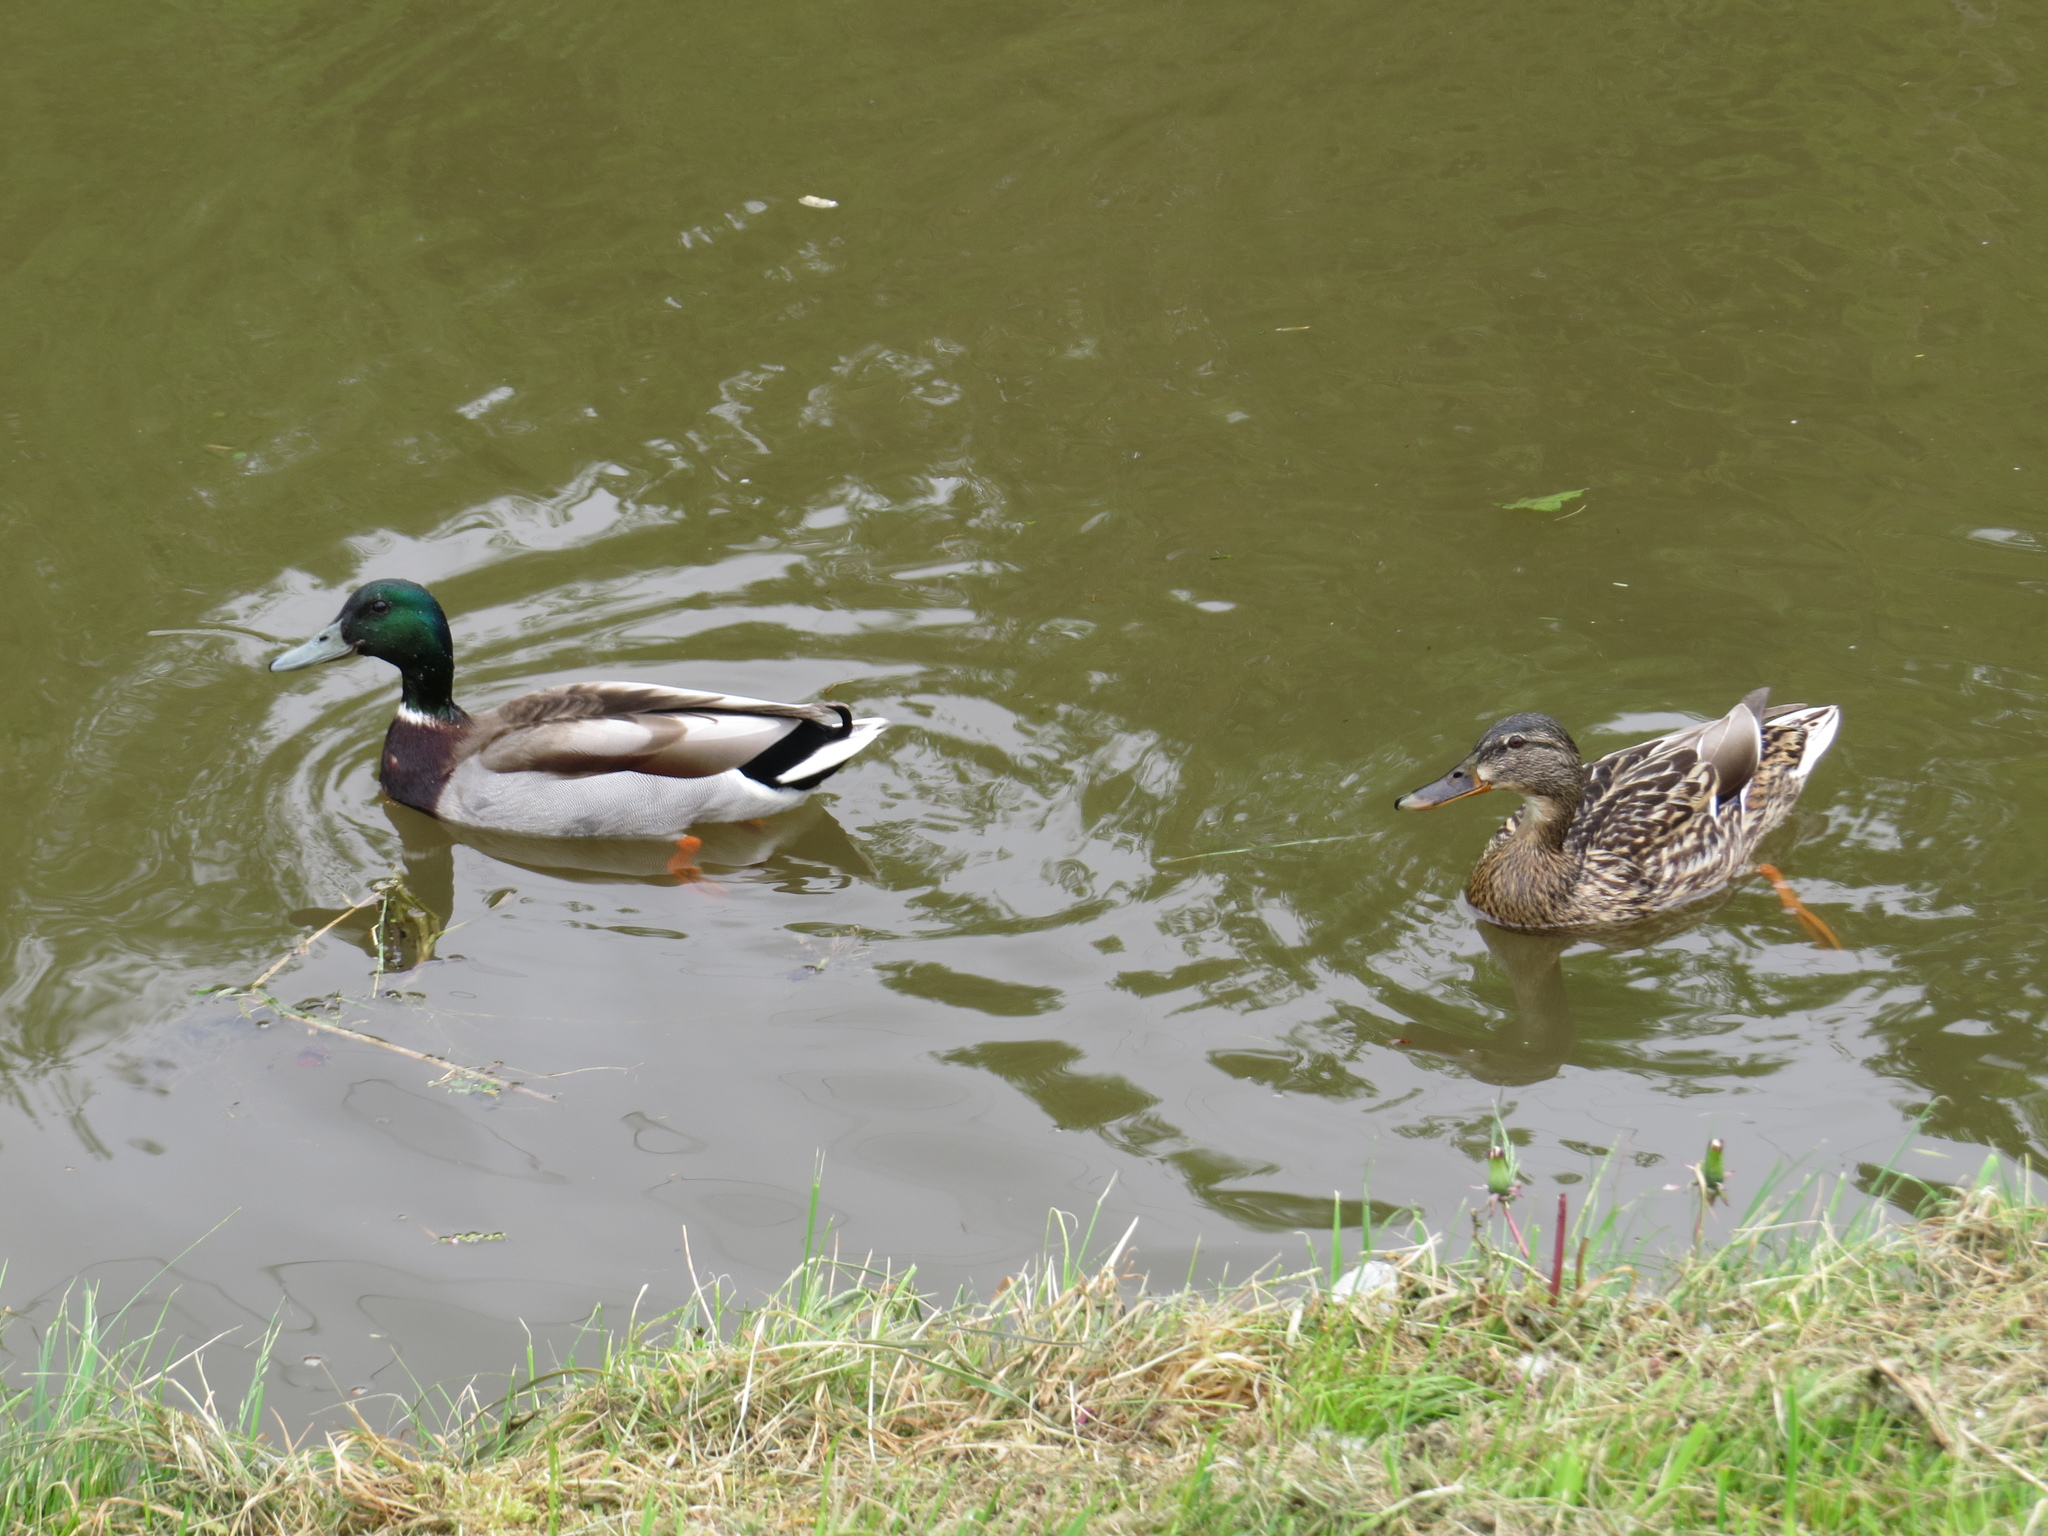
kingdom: Animalia
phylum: Chordata
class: Aves
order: Anseriformes
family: Anatidae
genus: Anas
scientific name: Anas platyrhynchos
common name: Mallard
